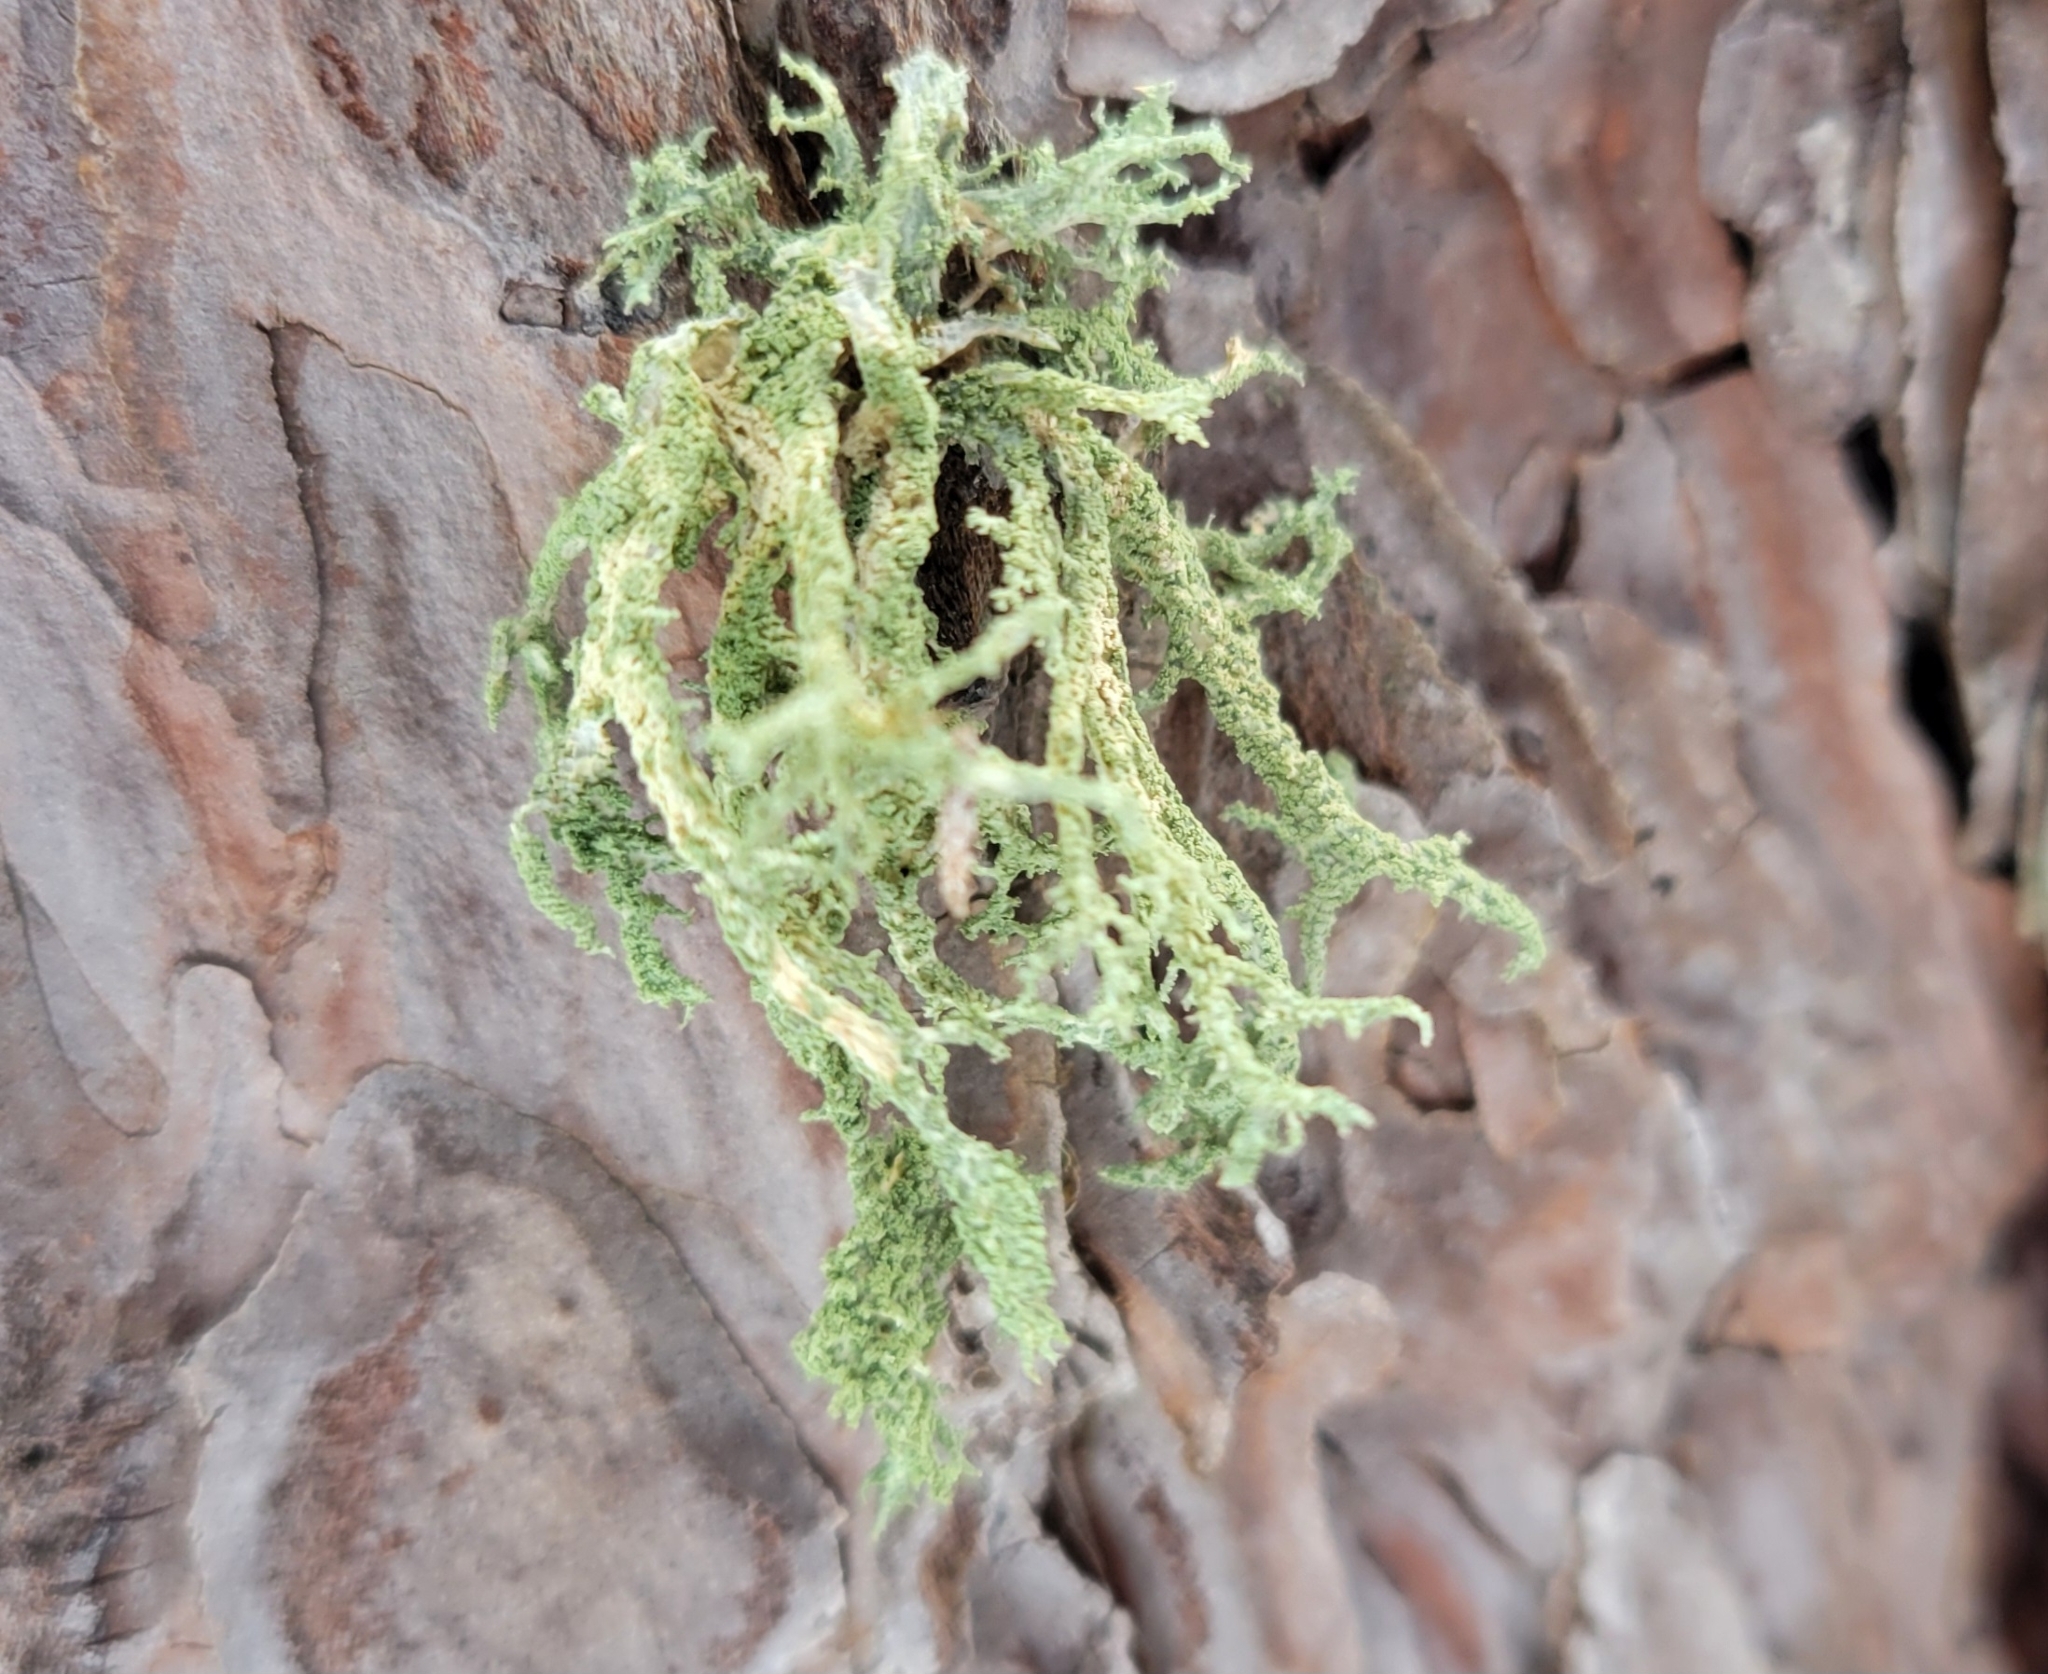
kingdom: Fungi
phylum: Ascomycota
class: Lecanoromycetes
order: Lecanorales
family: Parmeliaceae
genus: Evernia
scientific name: Evernia mesomorpha
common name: Boreal oak moss lichen
